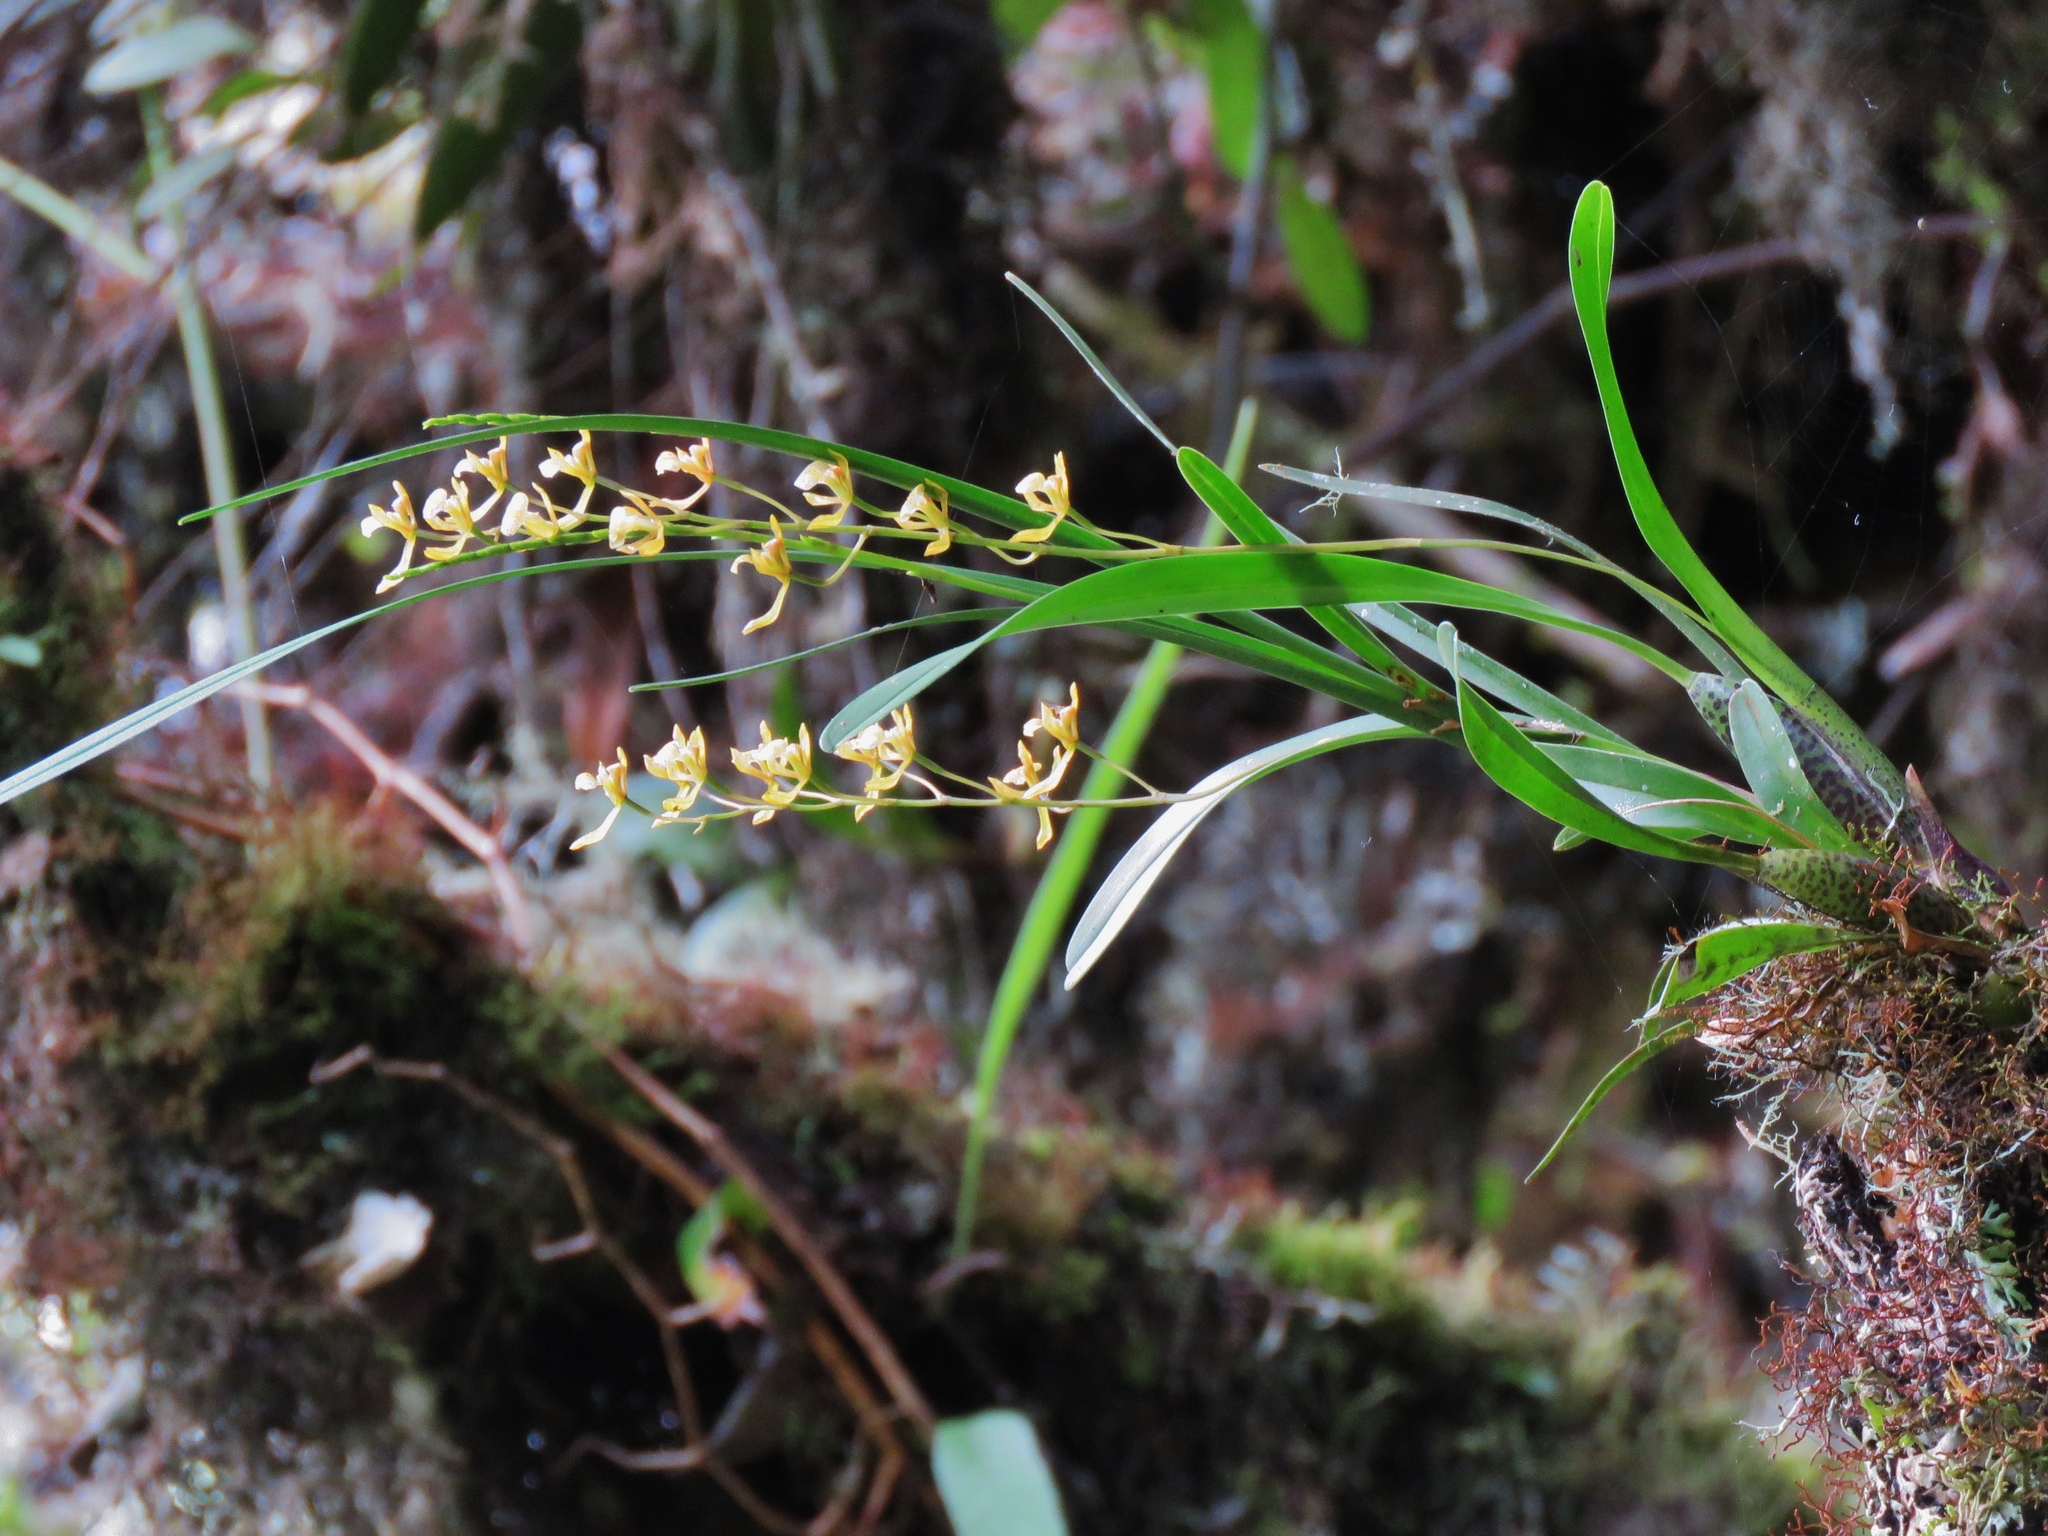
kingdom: Plantae
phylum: Tracheophyta
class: Liliopsida
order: Asparagales
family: Orchidaceae
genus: Cyrtochilum
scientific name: Cyrtochilum caespitosum
